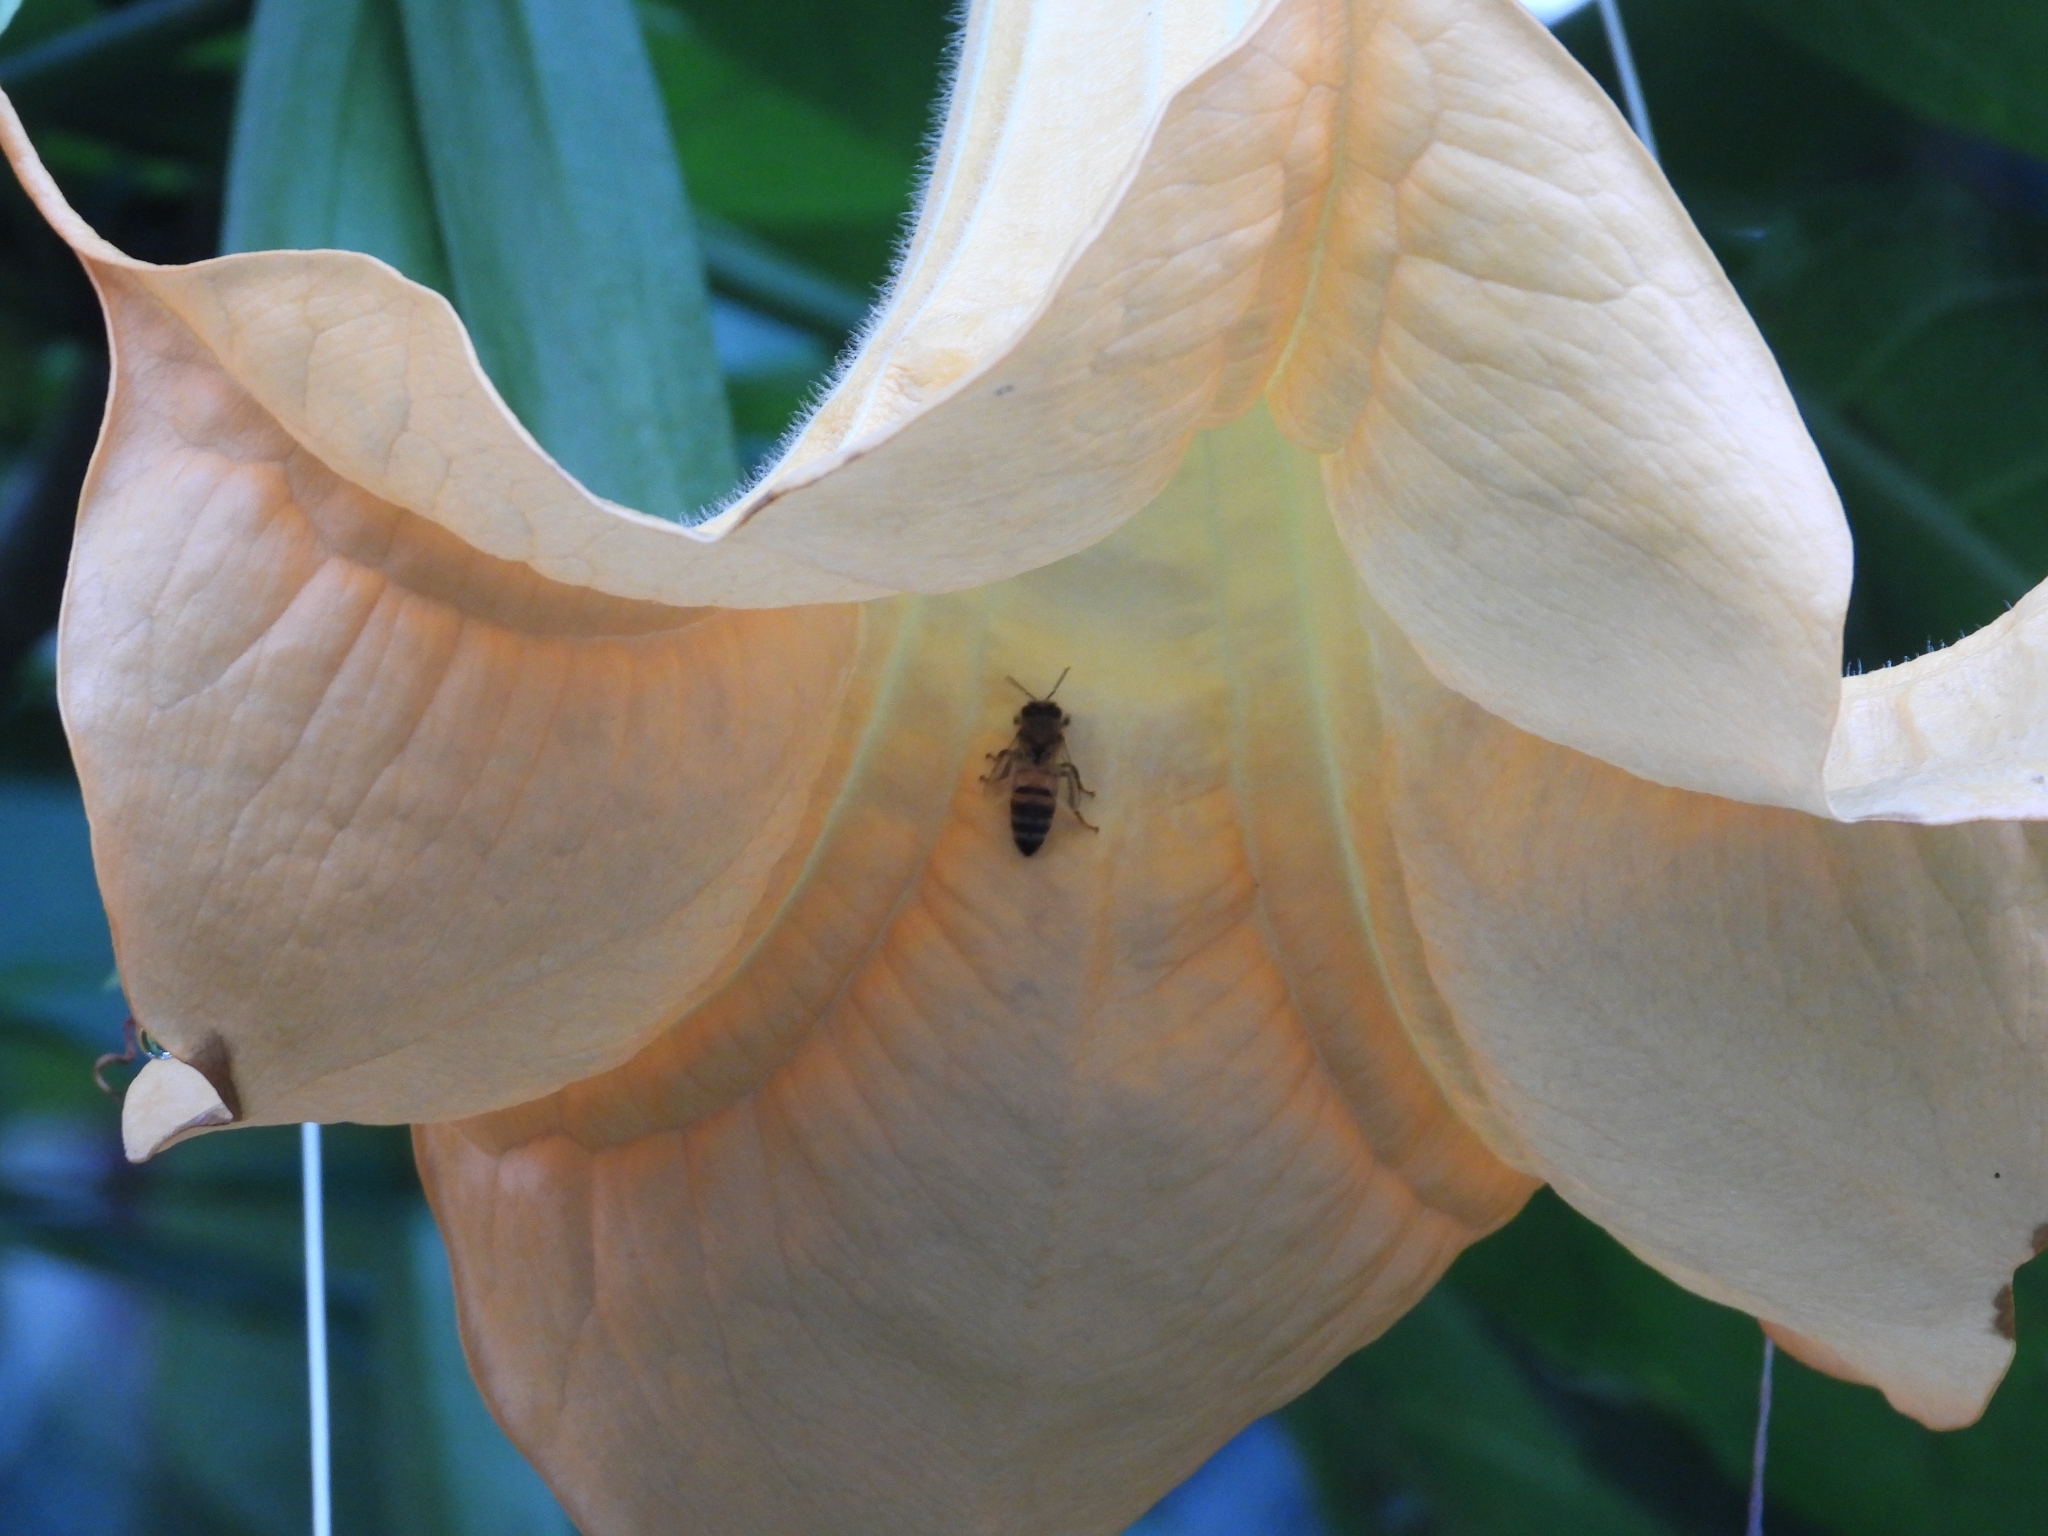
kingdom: Animalia
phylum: Arthropoda
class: Insecta
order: Hymenoptera
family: Apidae
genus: Apis
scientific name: Apis mellifera
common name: Honey bee
